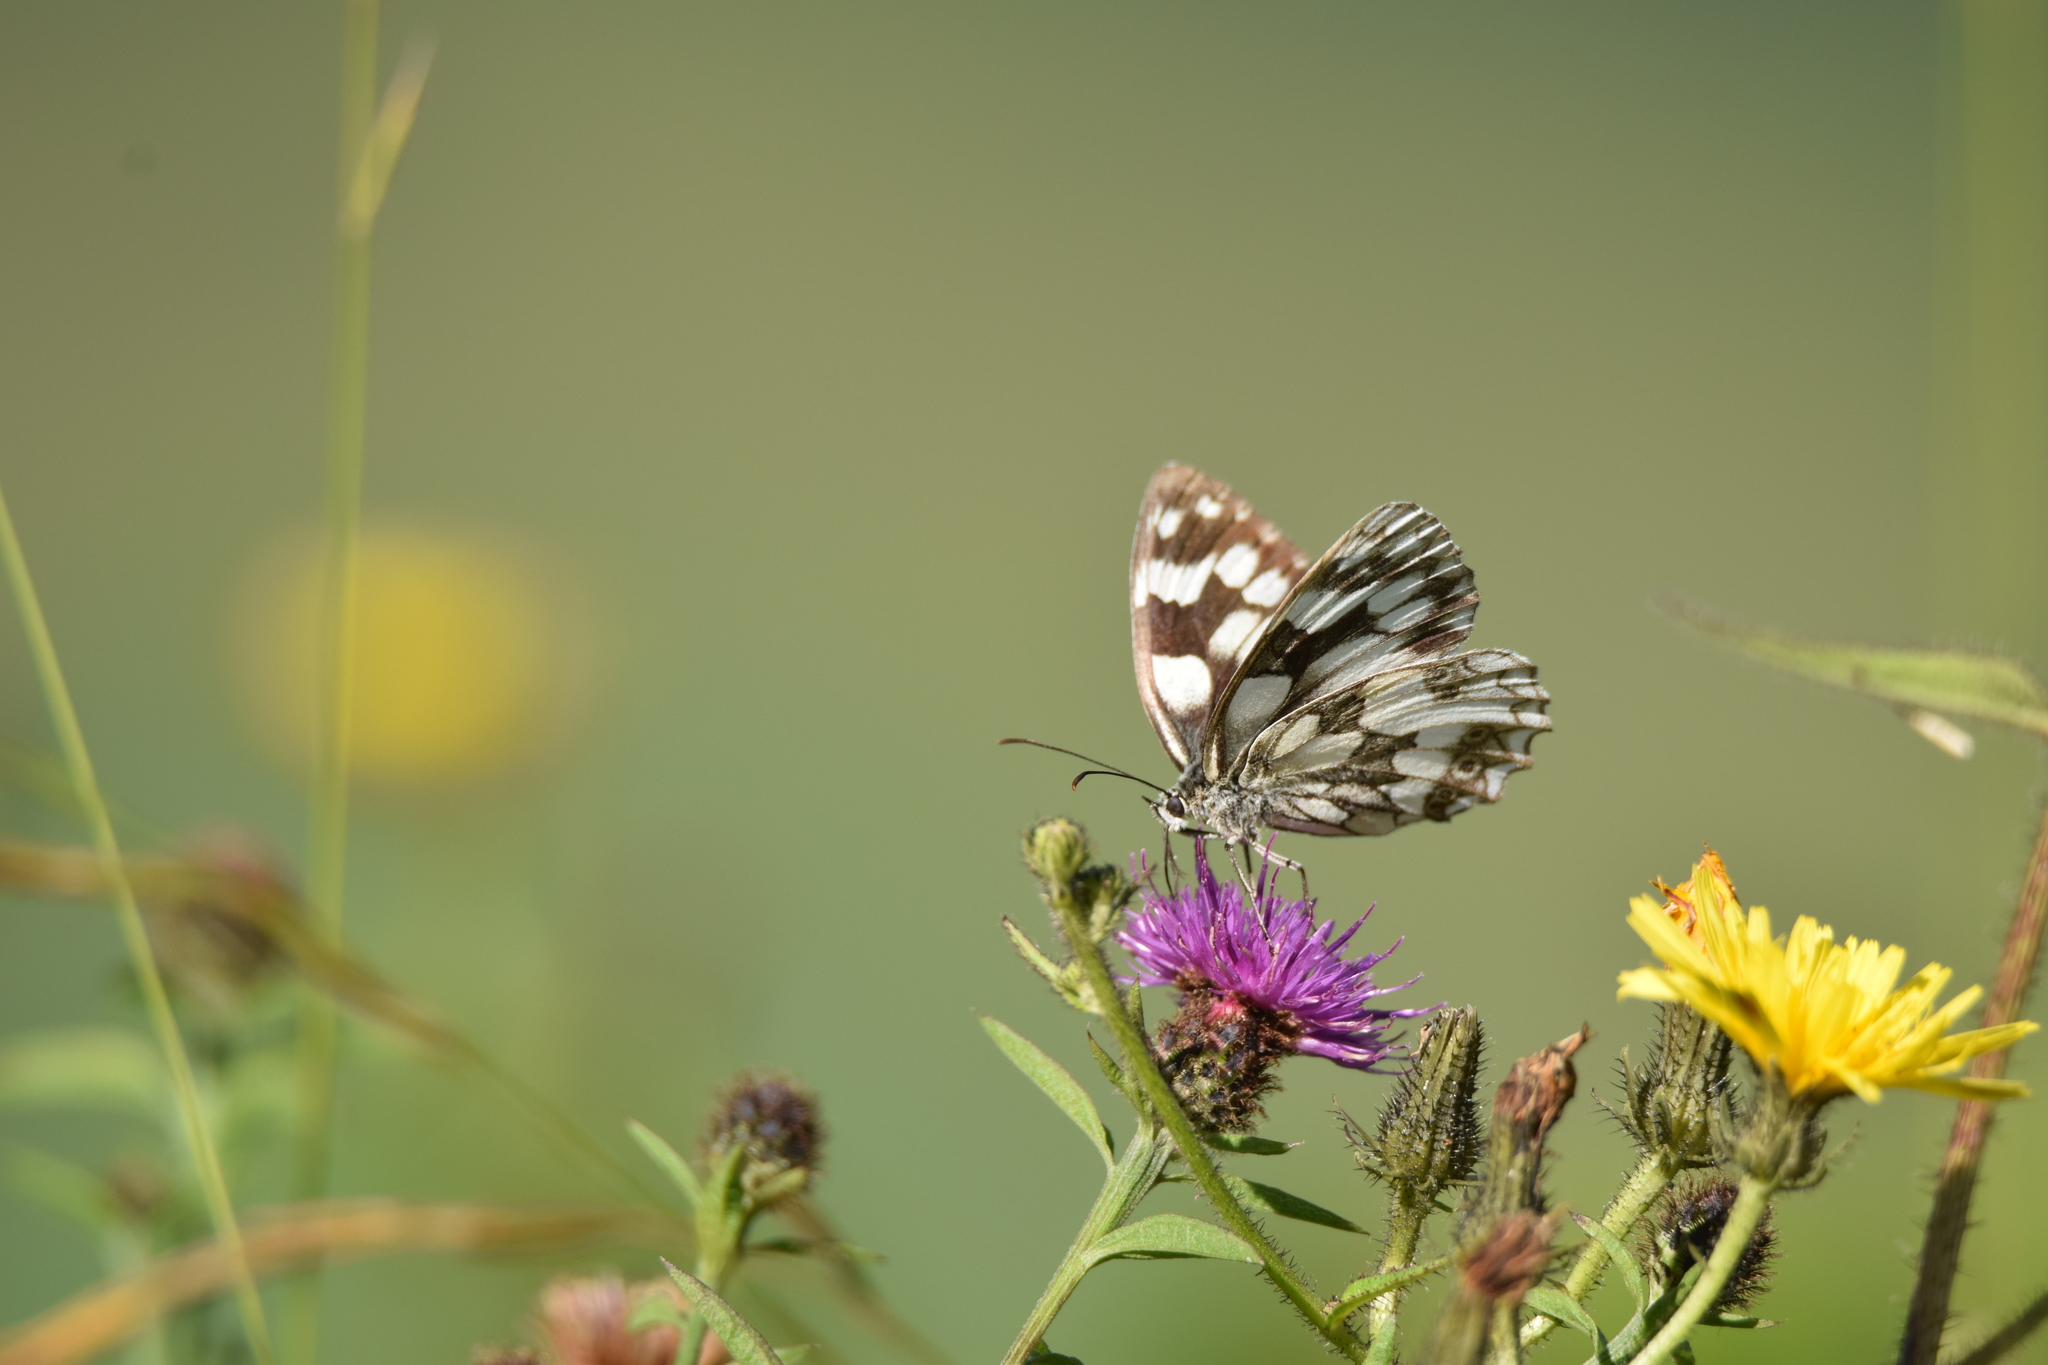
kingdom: Animalia
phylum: Arthropoda
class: Insecta
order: Lepidoptera
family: Nymphalidae
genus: Melanargia
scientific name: Melanargia galathea
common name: Marbled white
